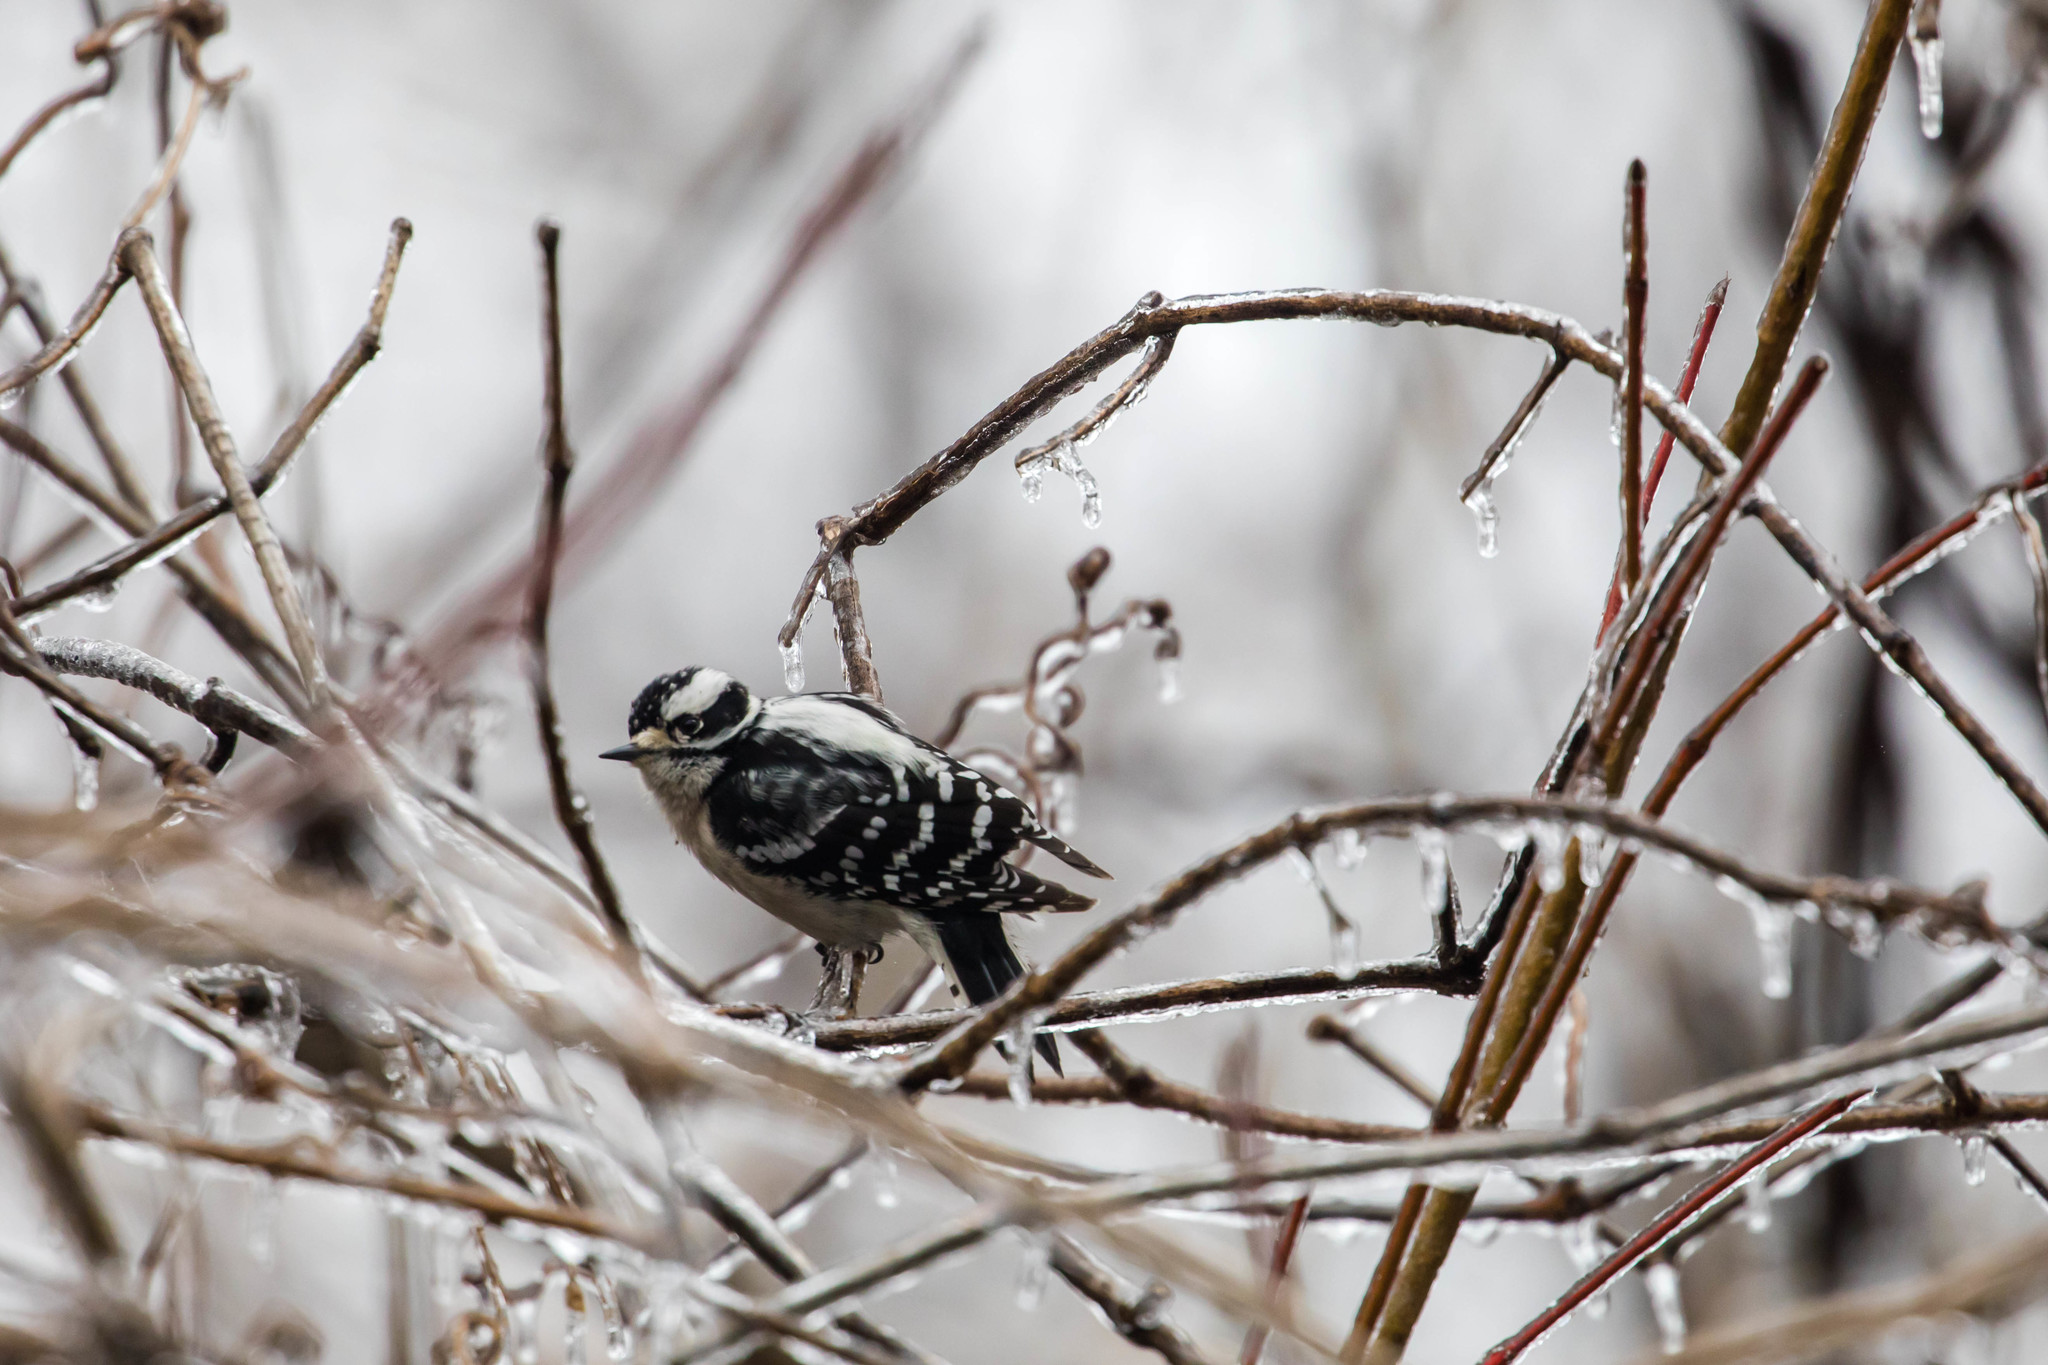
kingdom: Animalia
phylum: Chordata
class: Aves
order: Piciformes
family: Picidae
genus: Dryobates
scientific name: Dryobates pubescens
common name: Downy woodpecker
